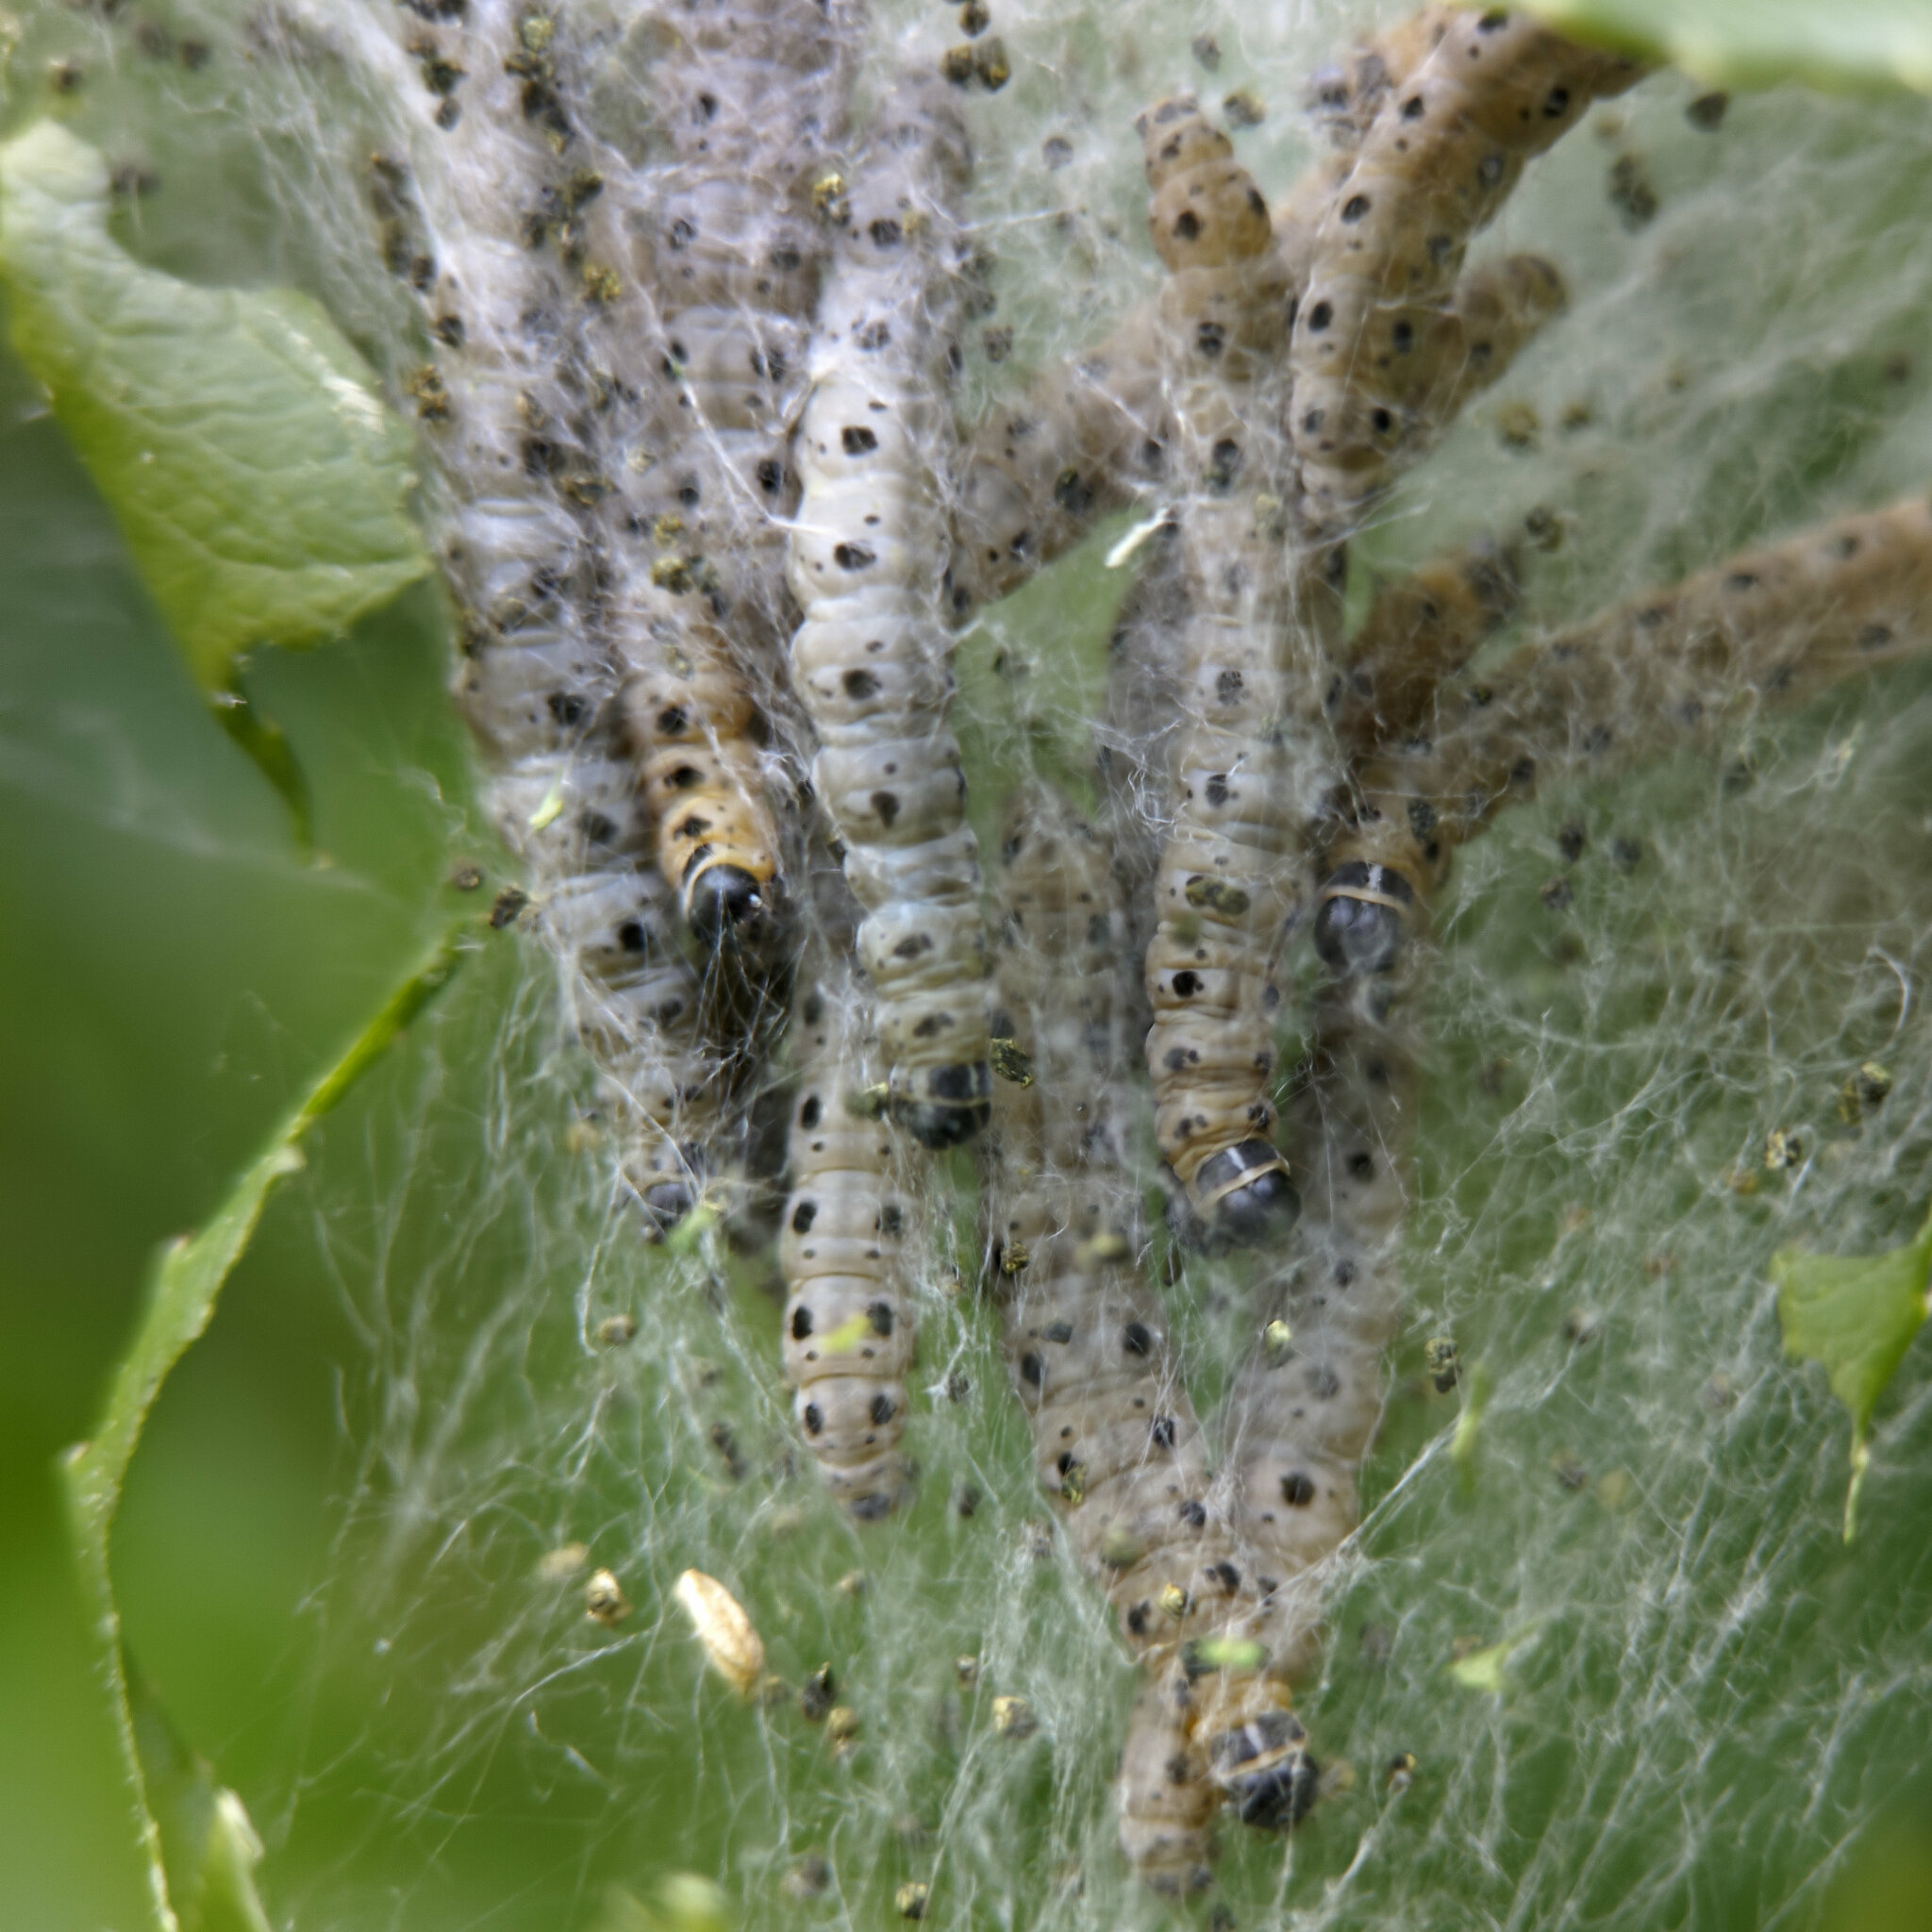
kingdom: Animalia
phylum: Arthropoda
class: Insecta
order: Lepidoptera
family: Yponomeutidae
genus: Yponomeuta
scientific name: Yponomeuta cagnagellus
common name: Spindle ermine
